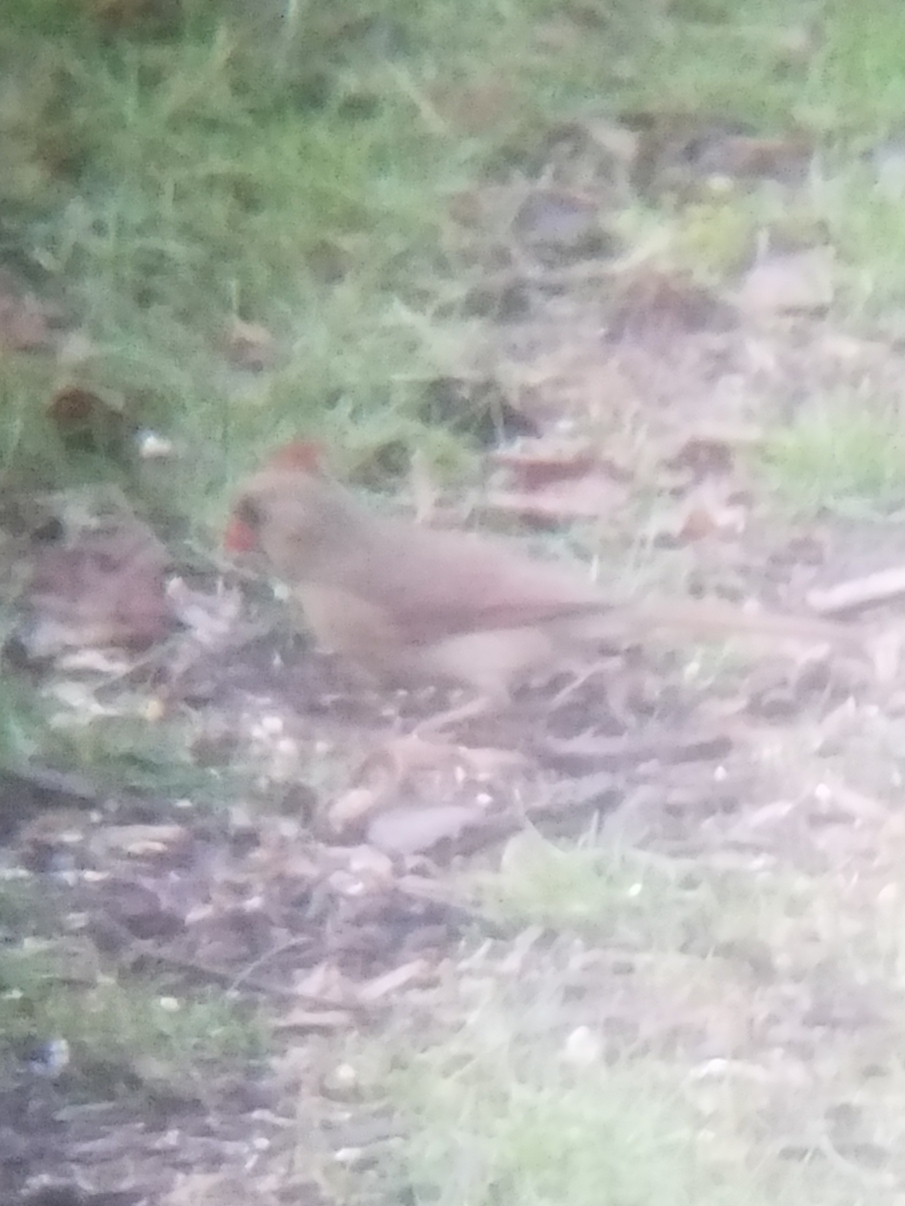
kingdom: Animalia
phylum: Chordata
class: Aves
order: Passeriformes
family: Cardinalidae
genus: Cardinalis
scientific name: Cardinalis cardinalis
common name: Northern cardinal
